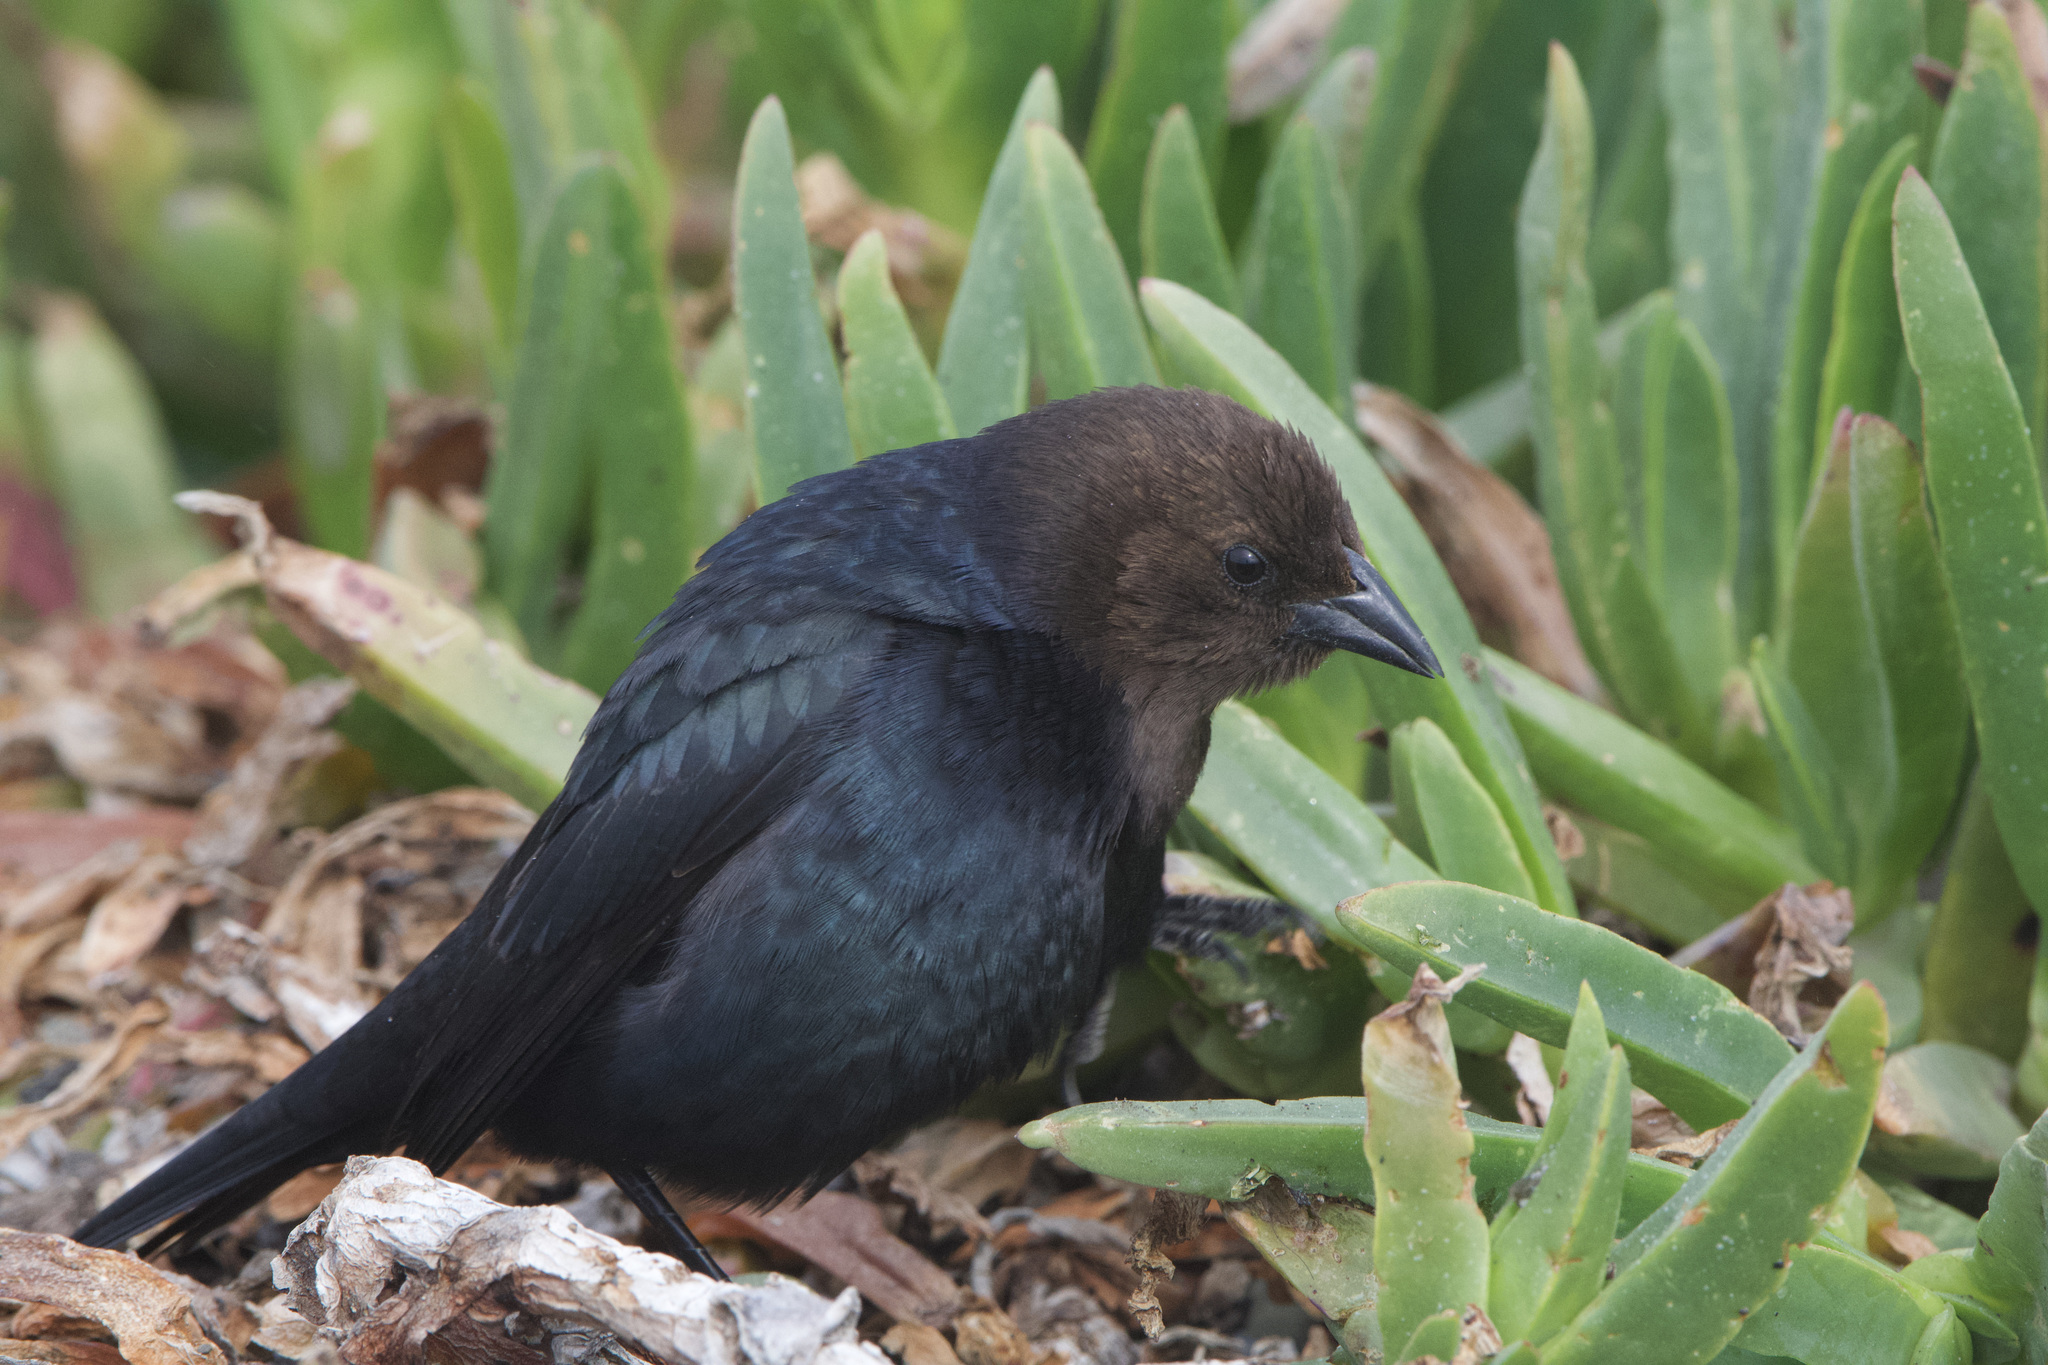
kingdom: Animalia
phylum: Chordata
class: Aves
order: Passeriformes
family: Icteridae
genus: Molothrus
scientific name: Molothrus ater
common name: Brown-headed cowbird
